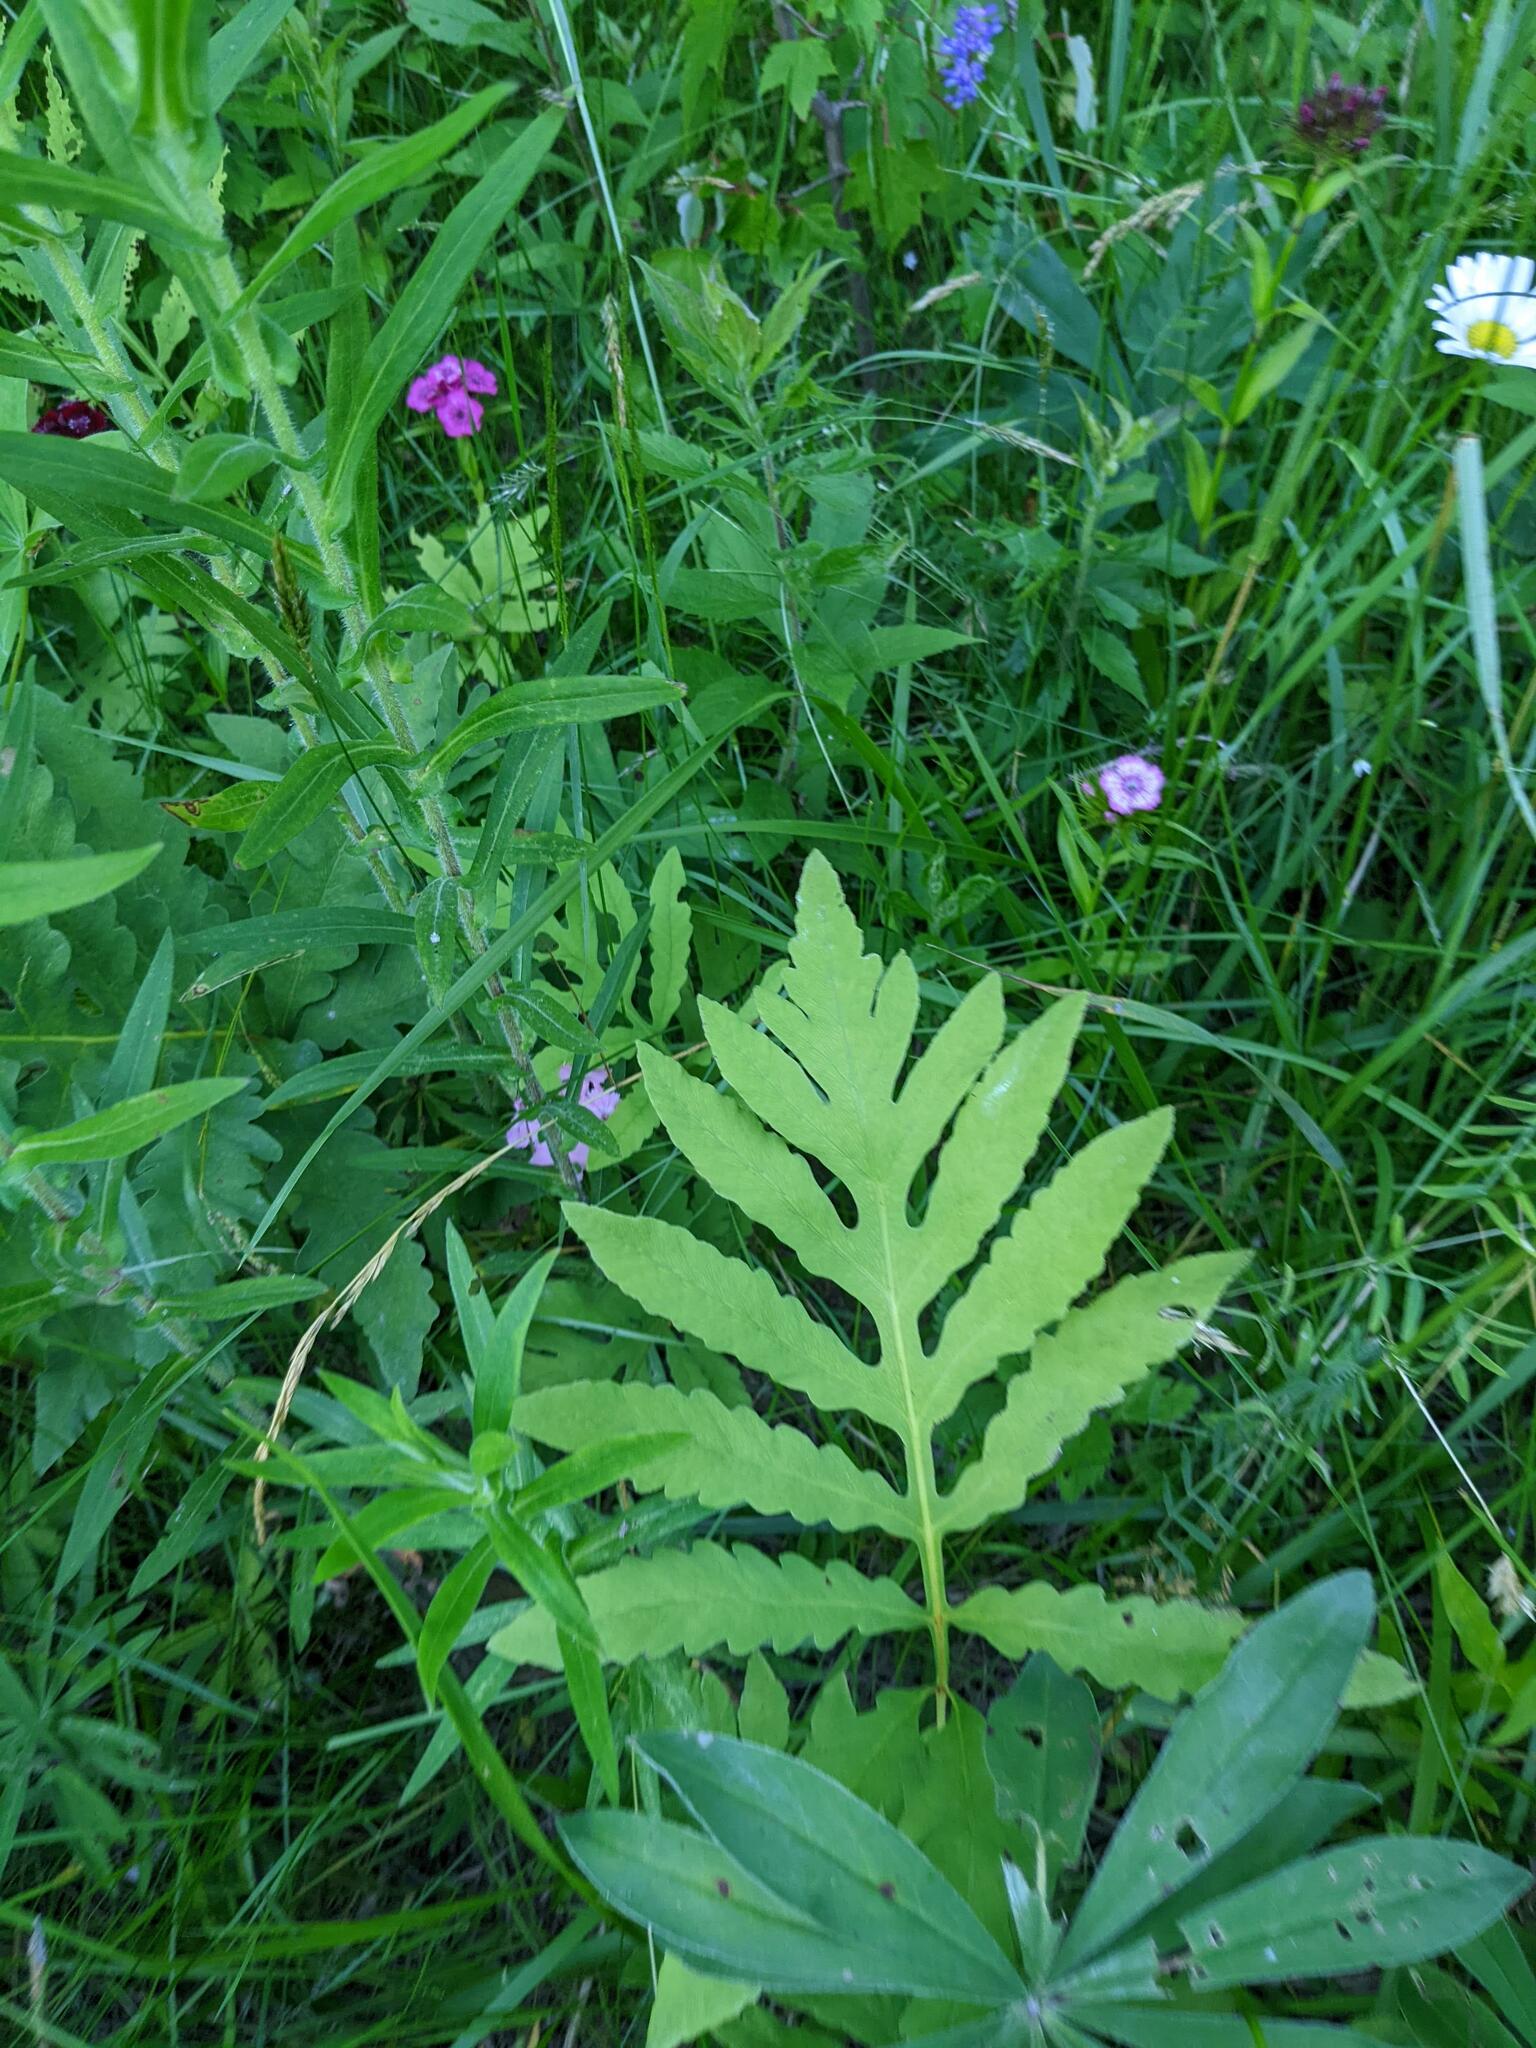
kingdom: Plantae
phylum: Tracheophyta
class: Polypodiopsida
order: Polypodiales
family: Onocleaceae
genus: Onoclea
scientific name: Onoclea sensibilis
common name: Sensitive fern
